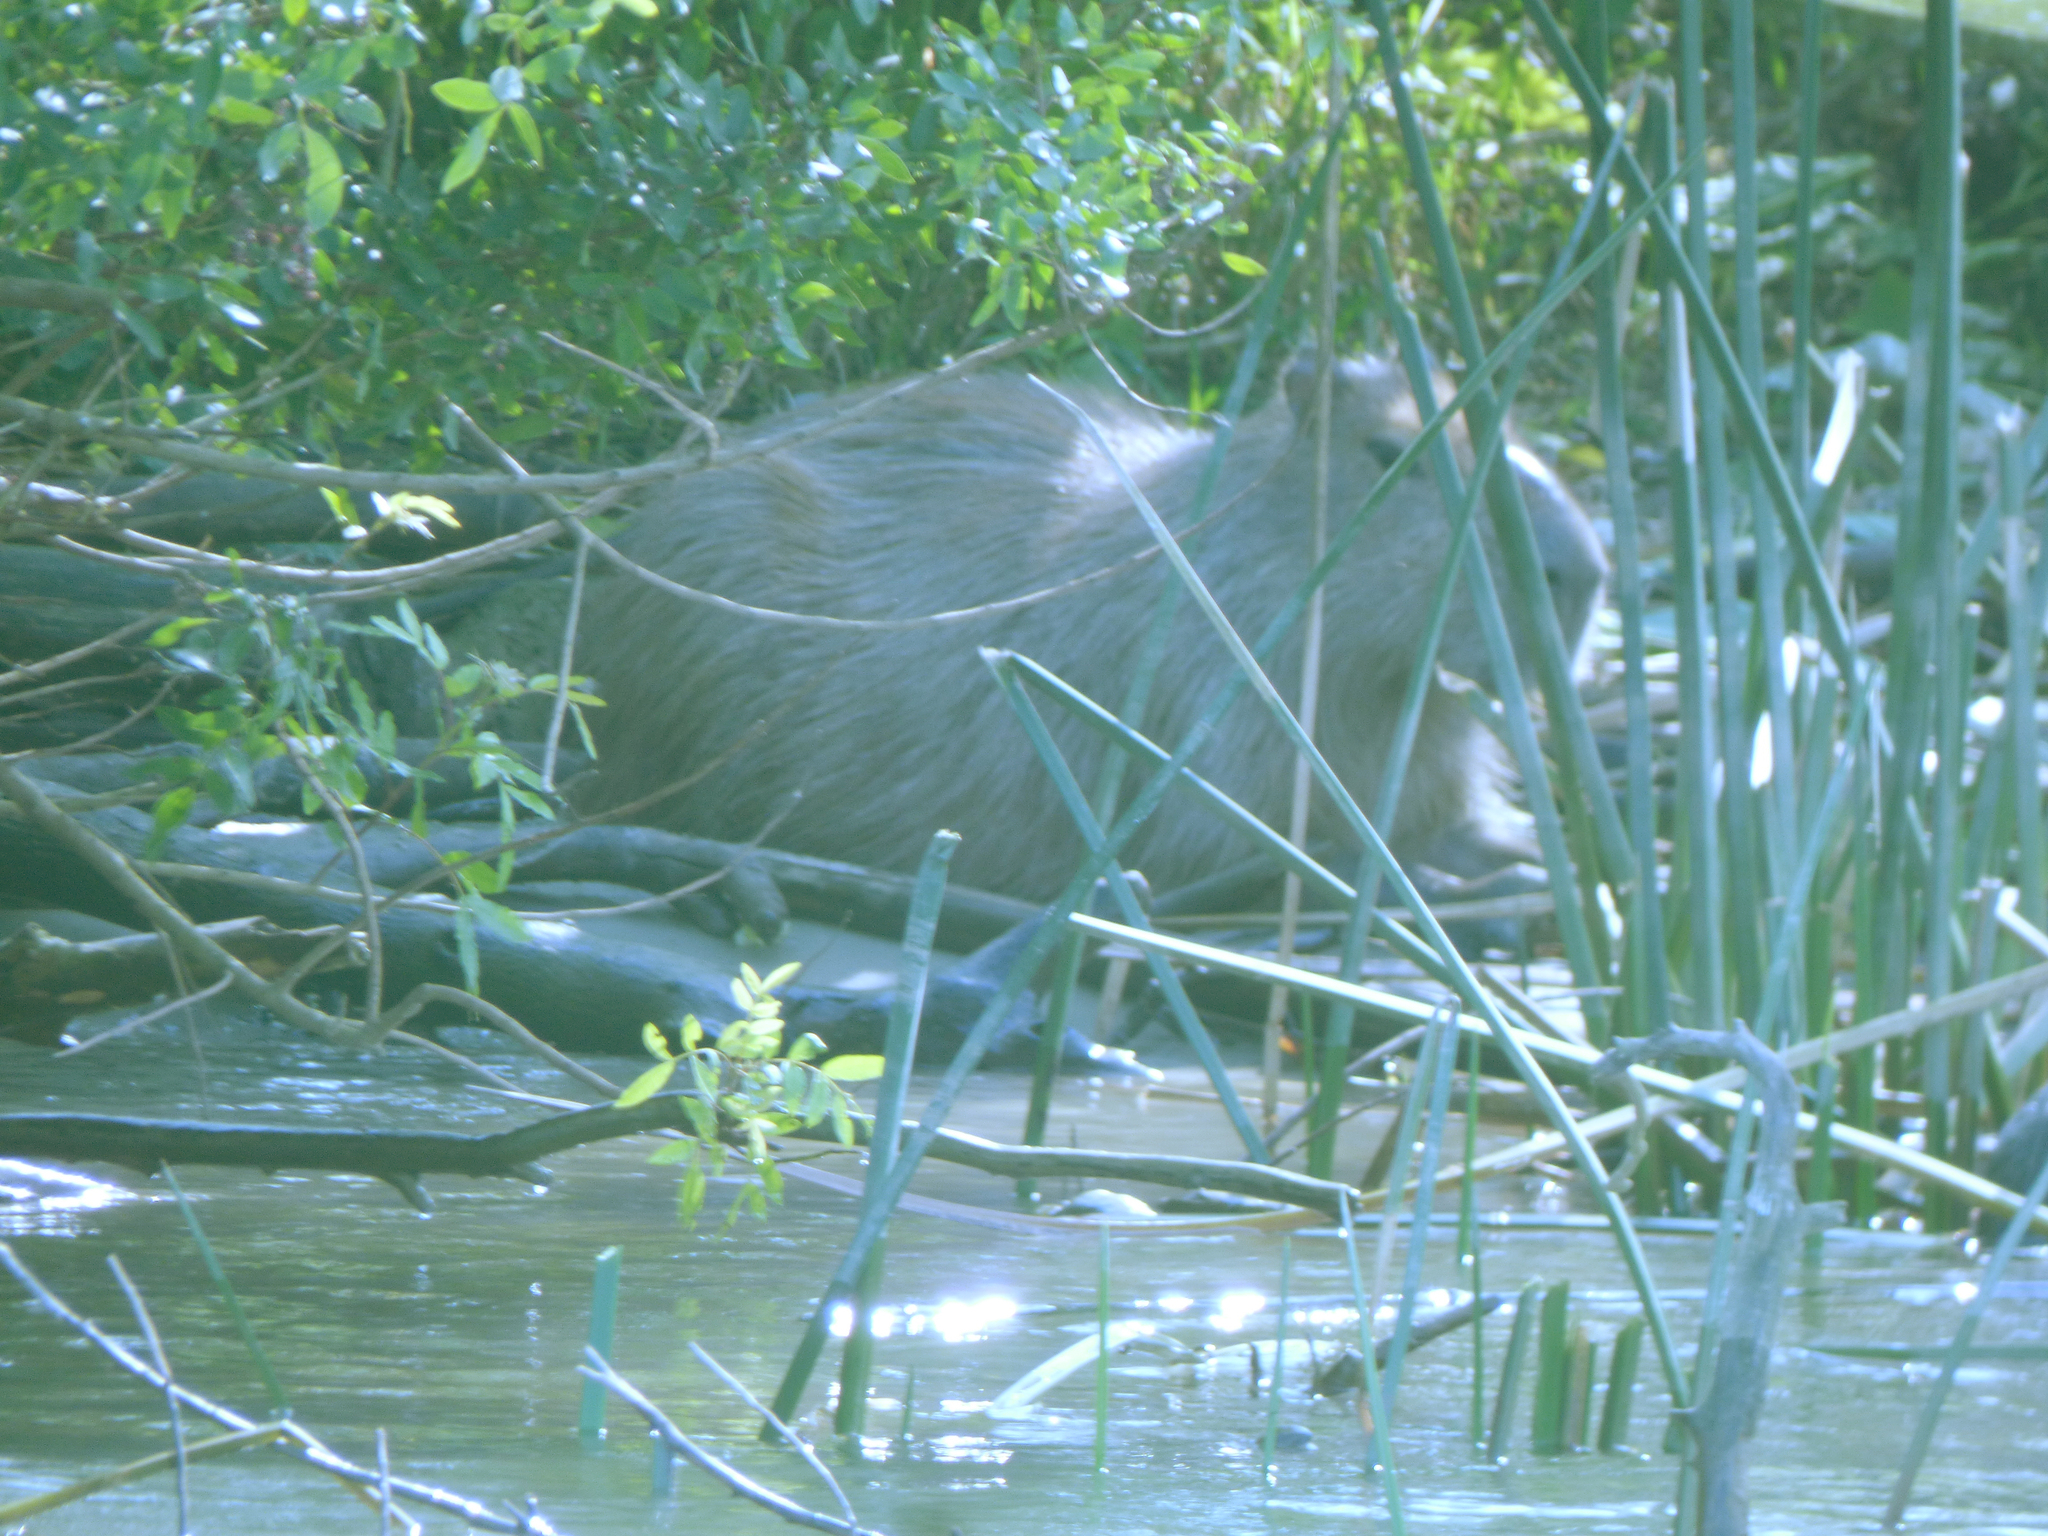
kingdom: Animalia
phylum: Chordata
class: Mammalia
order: Rodentia
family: Caviidae
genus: Hydrochoerus
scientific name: Hydrochoerus hydrochaeris
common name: Capybara
